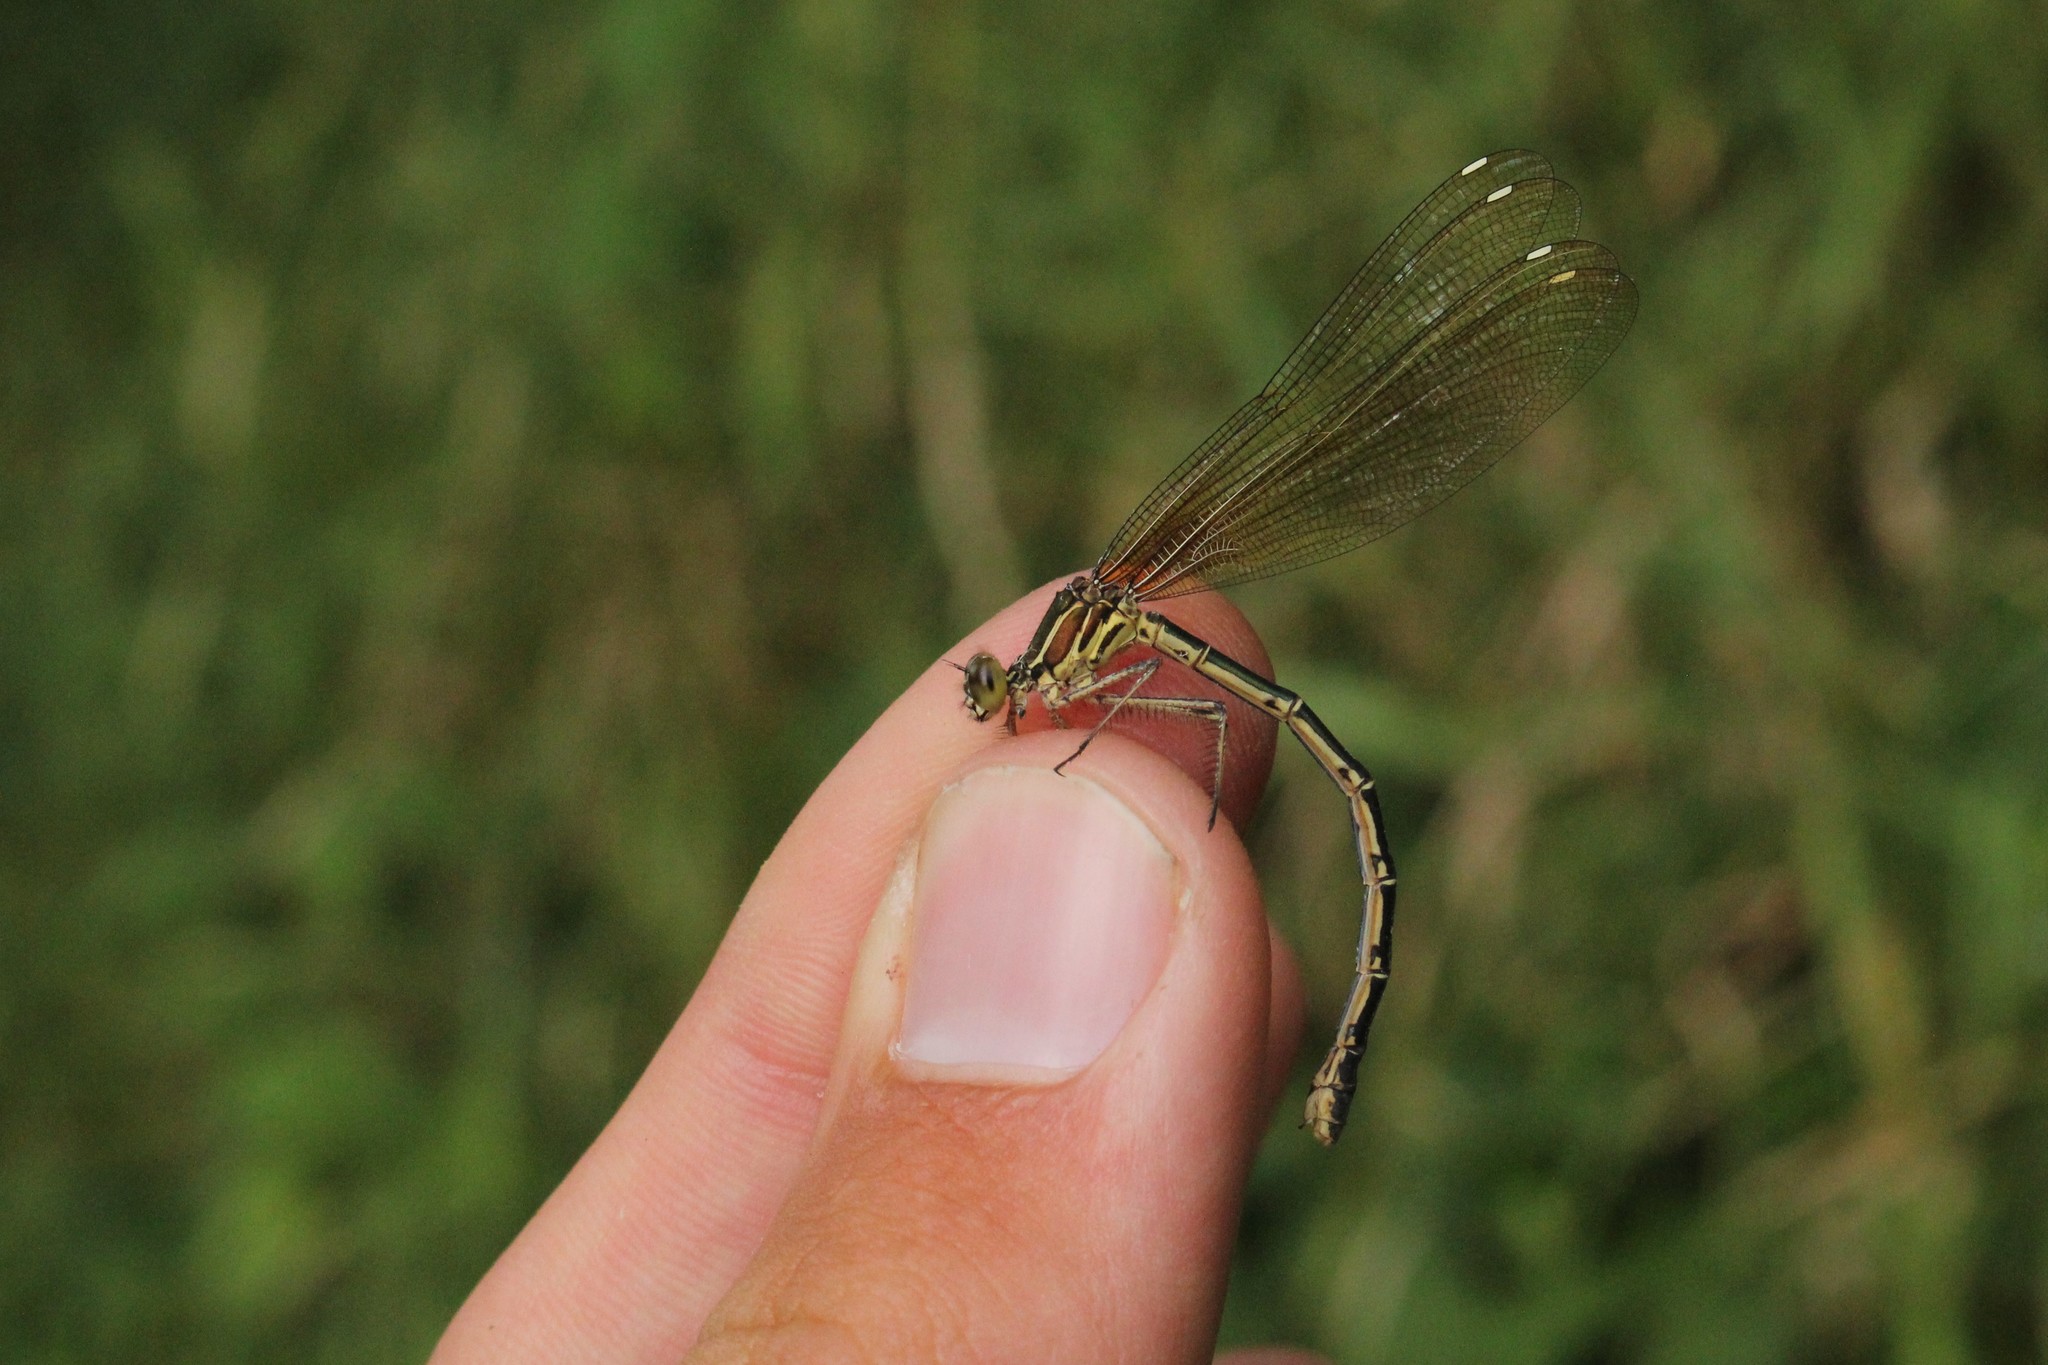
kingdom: Animalia
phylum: Arthropoda
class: Insecta
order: Odonata
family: Calopterygidae
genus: Hetaerina
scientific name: Hetaerina americana
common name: American rubyspot
